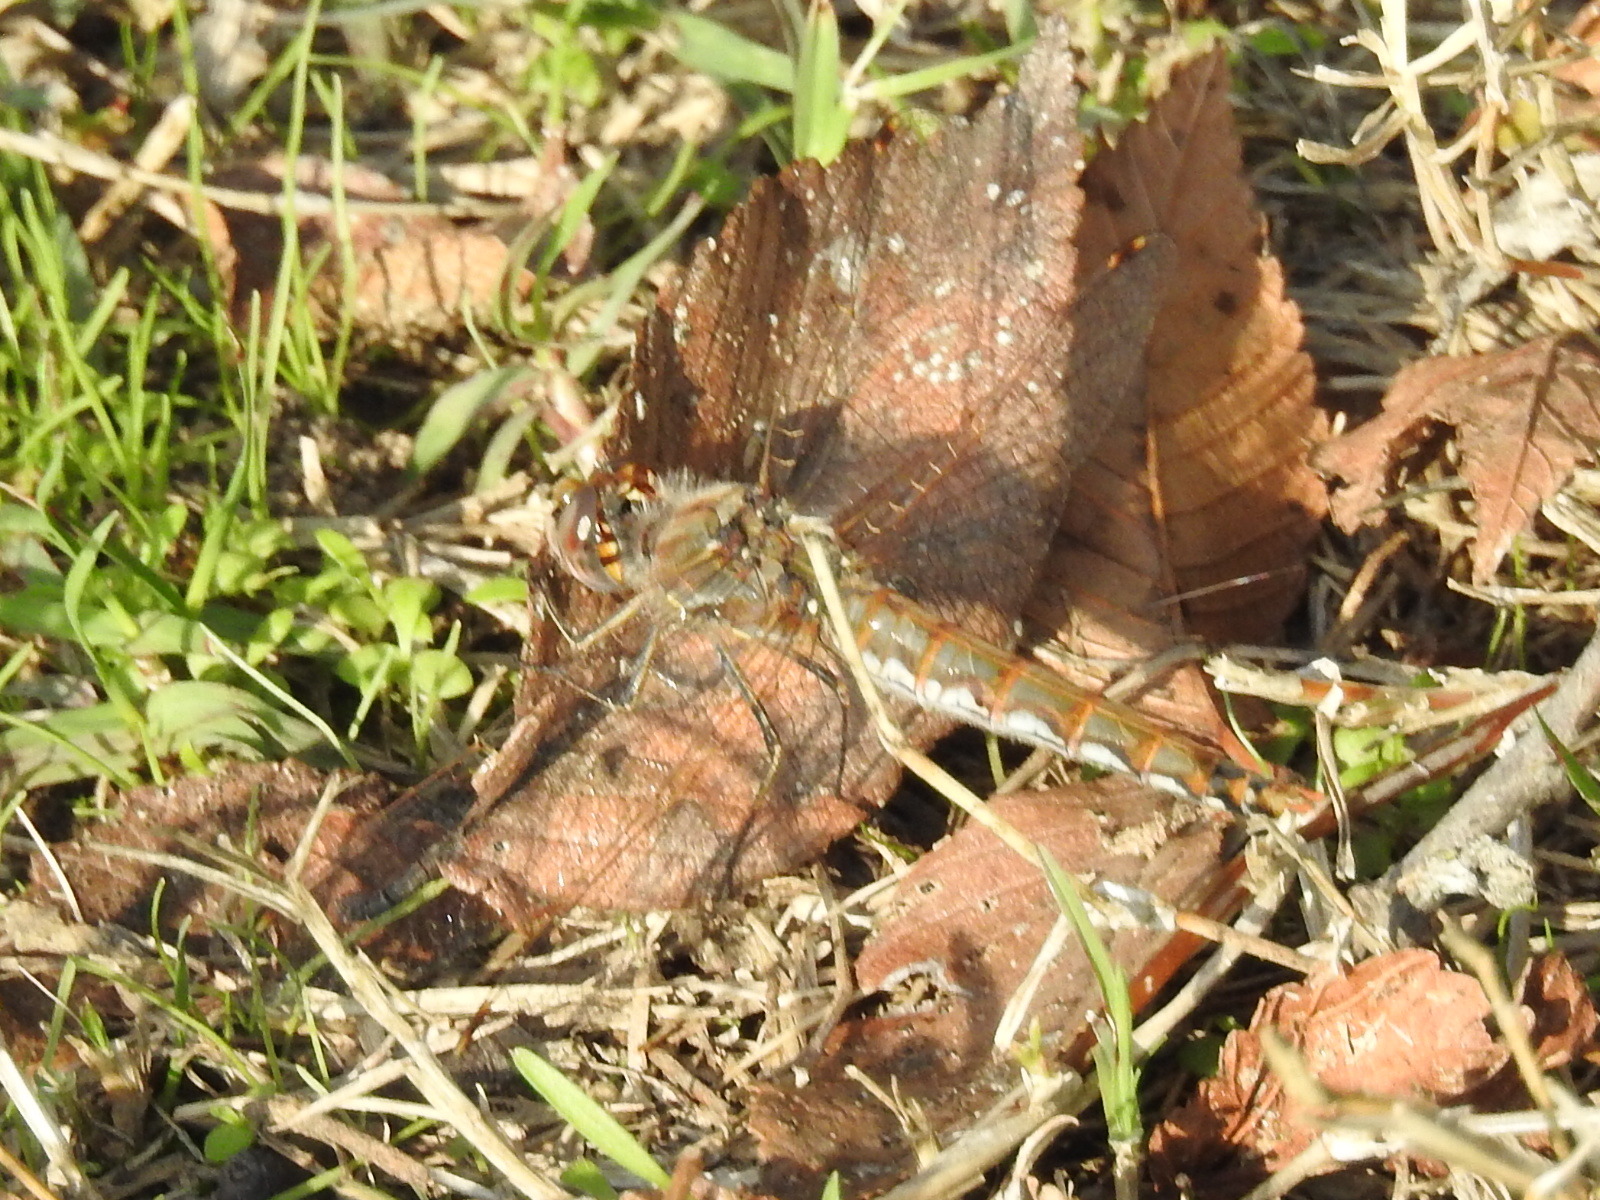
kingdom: Animalia
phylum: Arthropoda
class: Insecta
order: Odonata
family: Libellulidae
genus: Sympetrum
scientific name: Sympetrum corruptum
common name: Variegated meadowhawk
